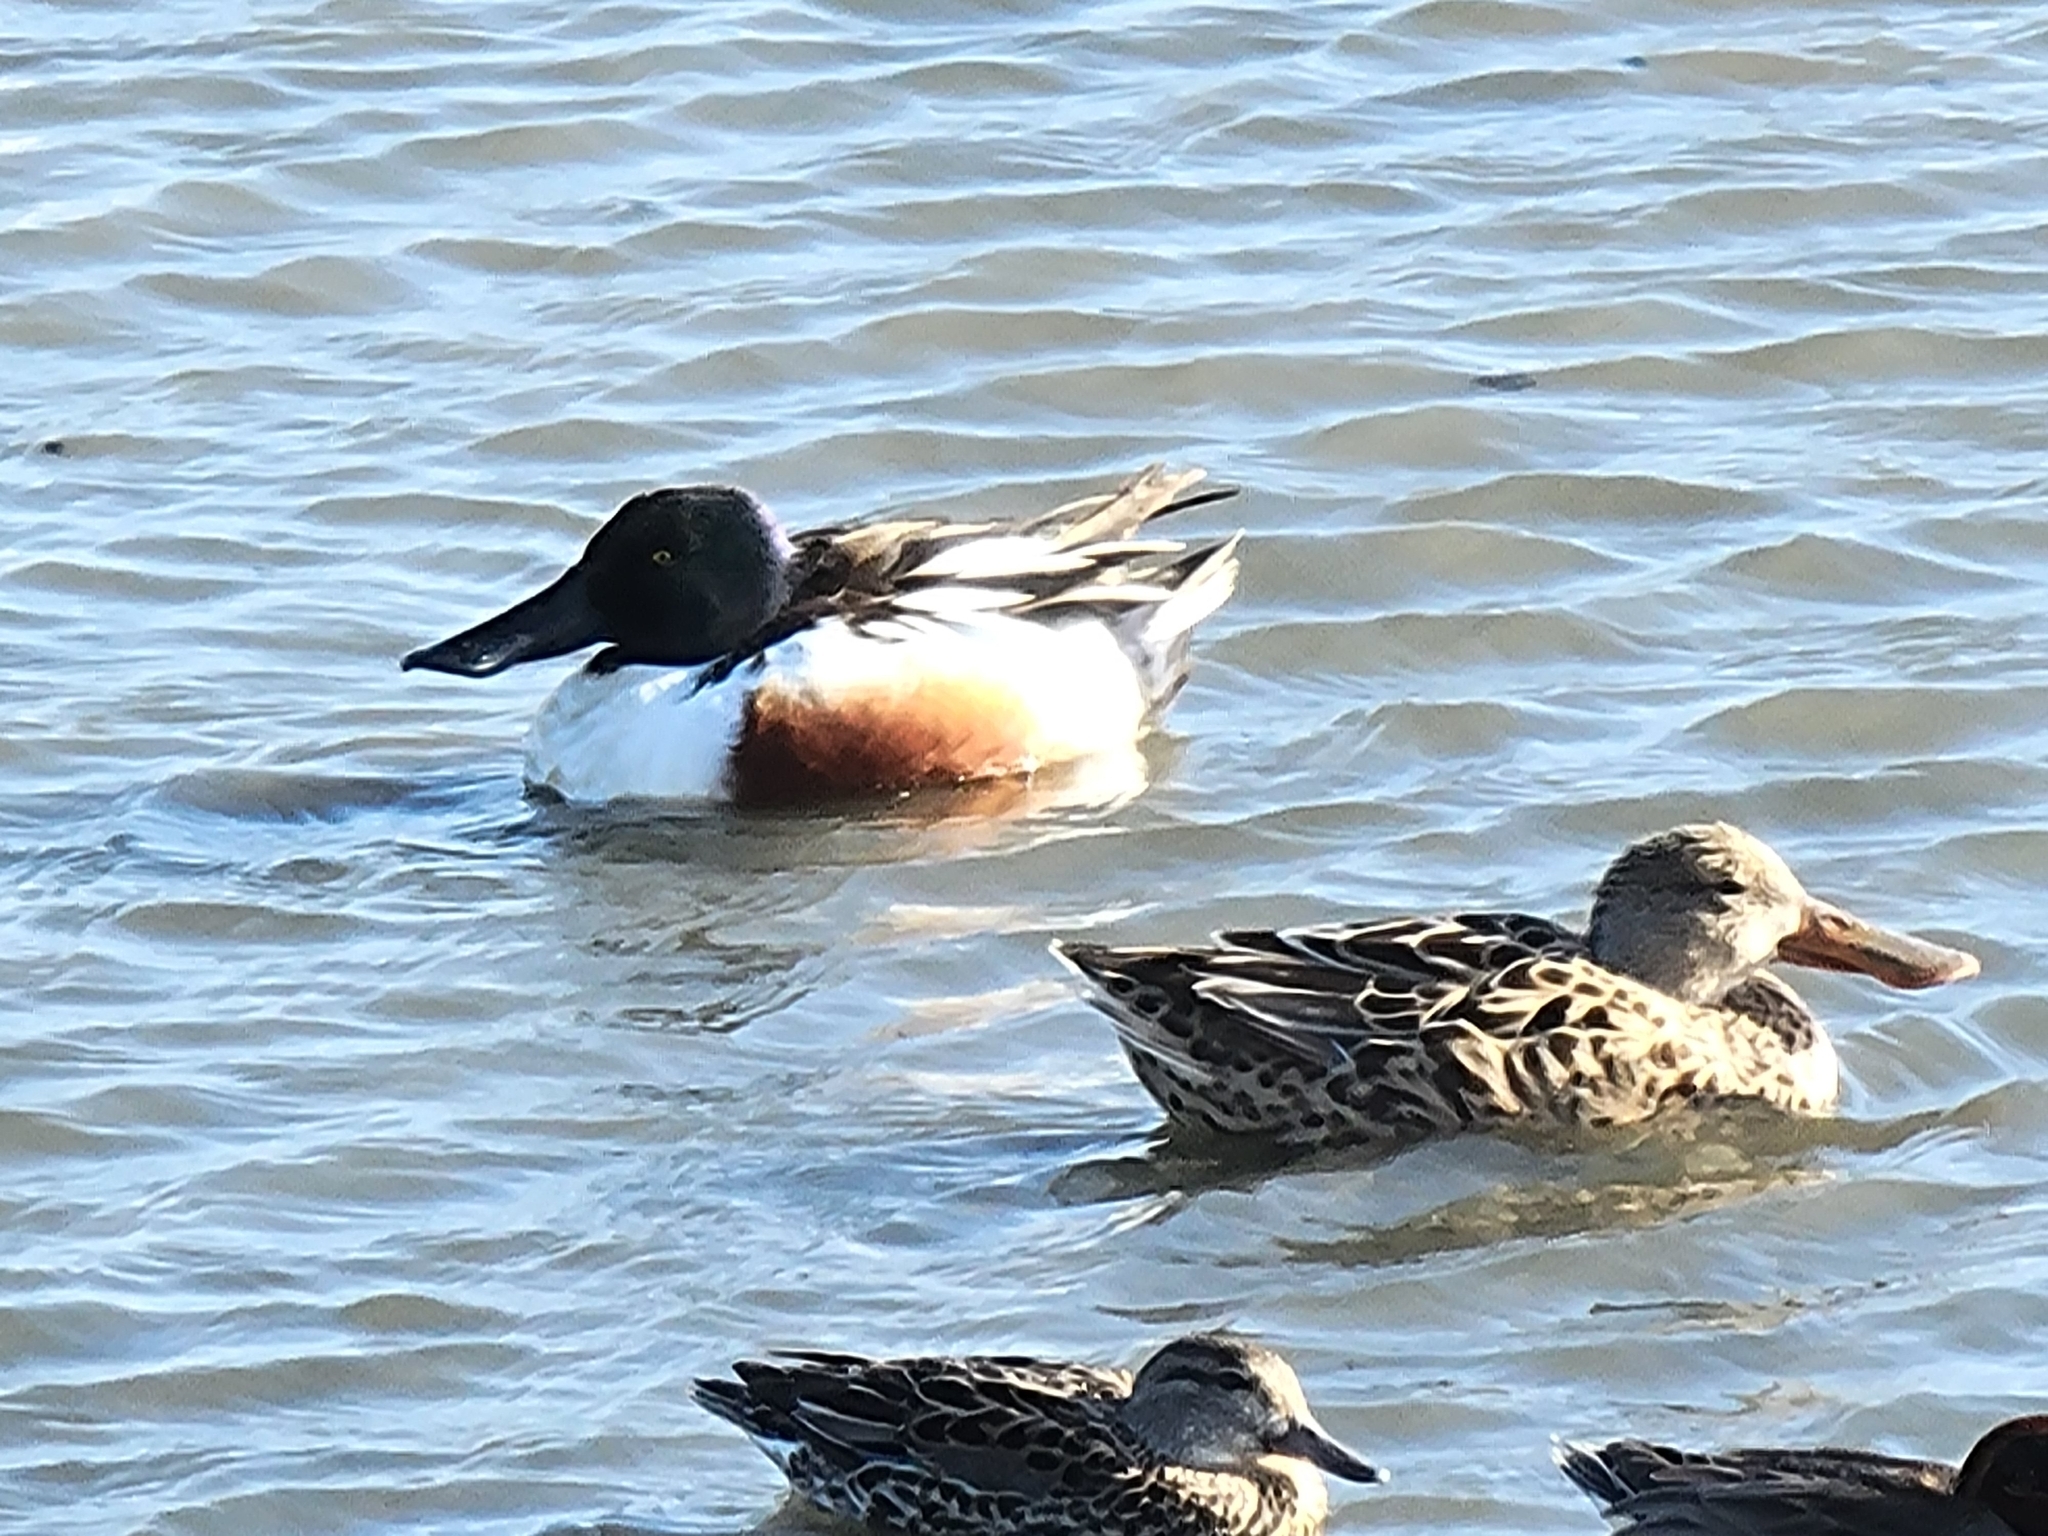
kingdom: Animalia
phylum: Chordata
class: Aves
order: Anseriformes
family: Anatidae
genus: Spatula
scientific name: Spatula clypeata
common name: Northern shoveler
